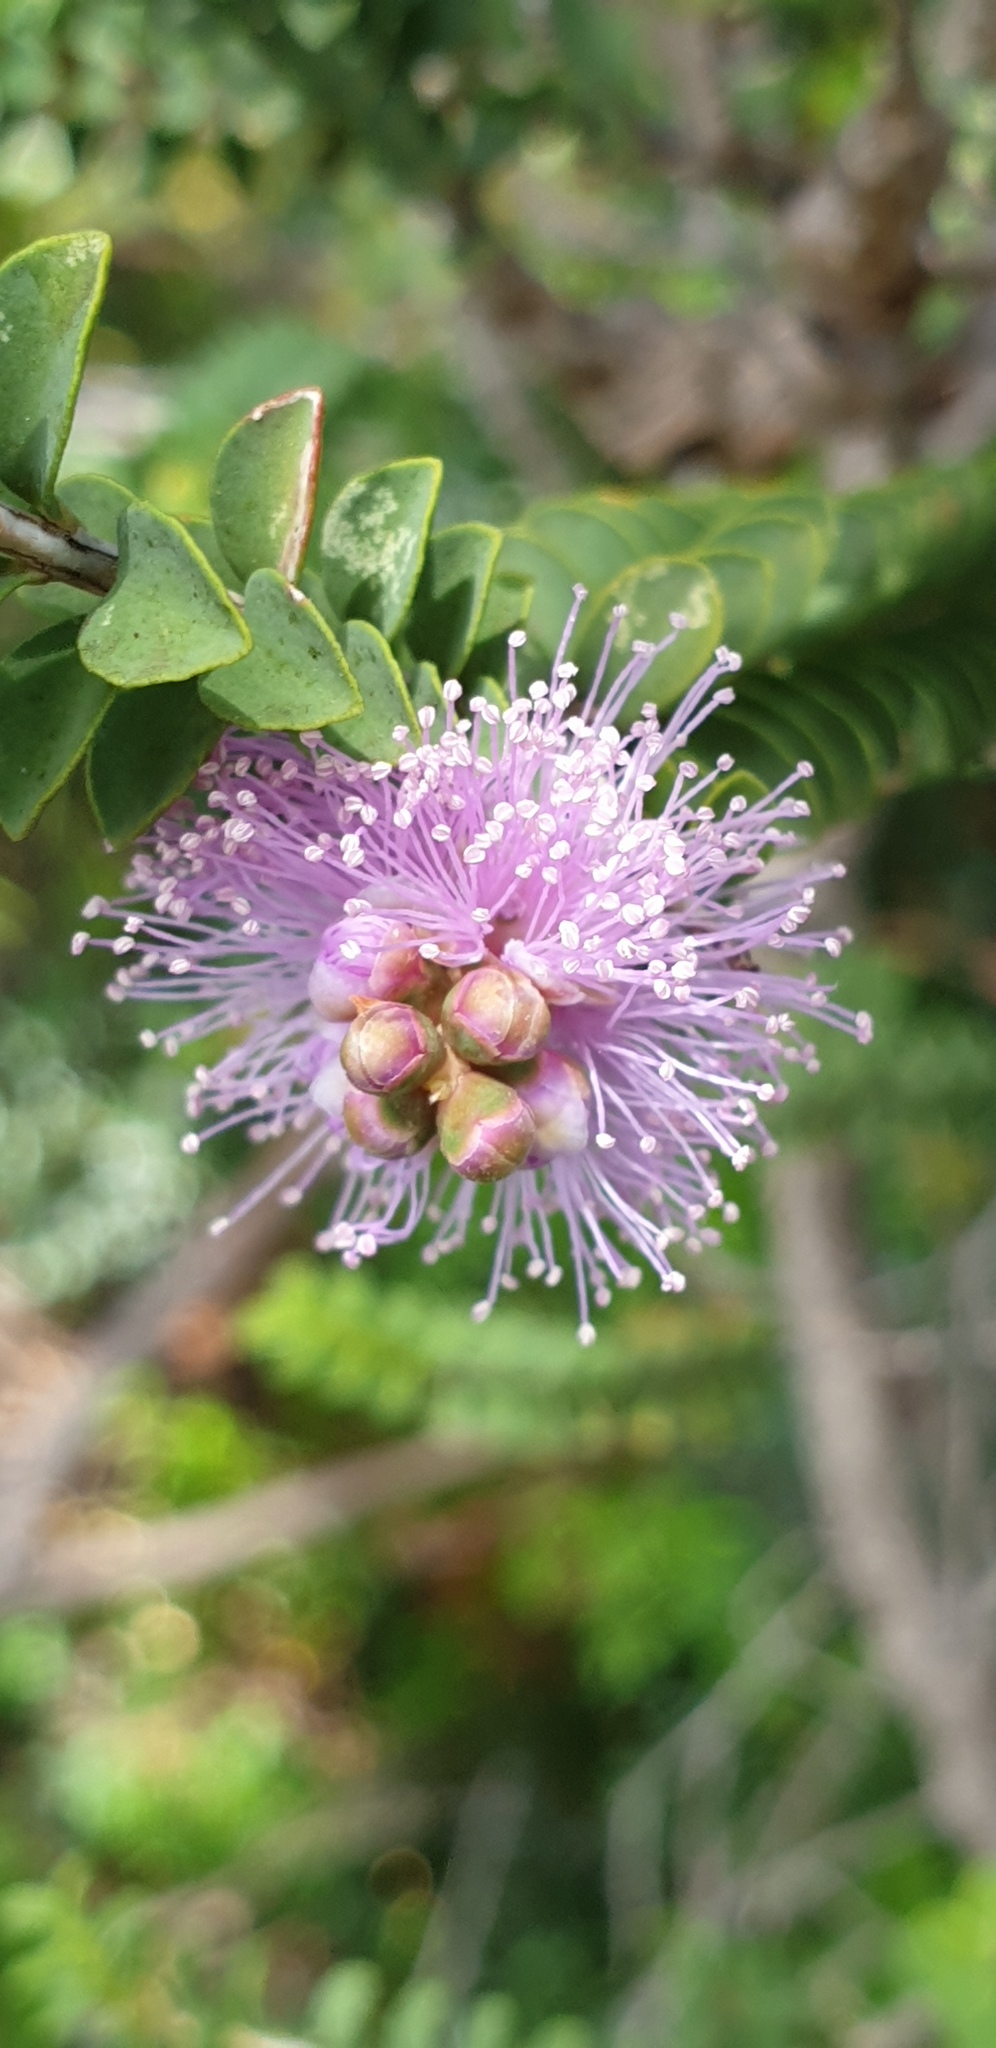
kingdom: Plantae
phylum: Tracheophyta
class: Magnoliopsida
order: Myrtales
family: Myrtaceae
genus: Melaleuca
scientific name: Melaleuca gibbosa
